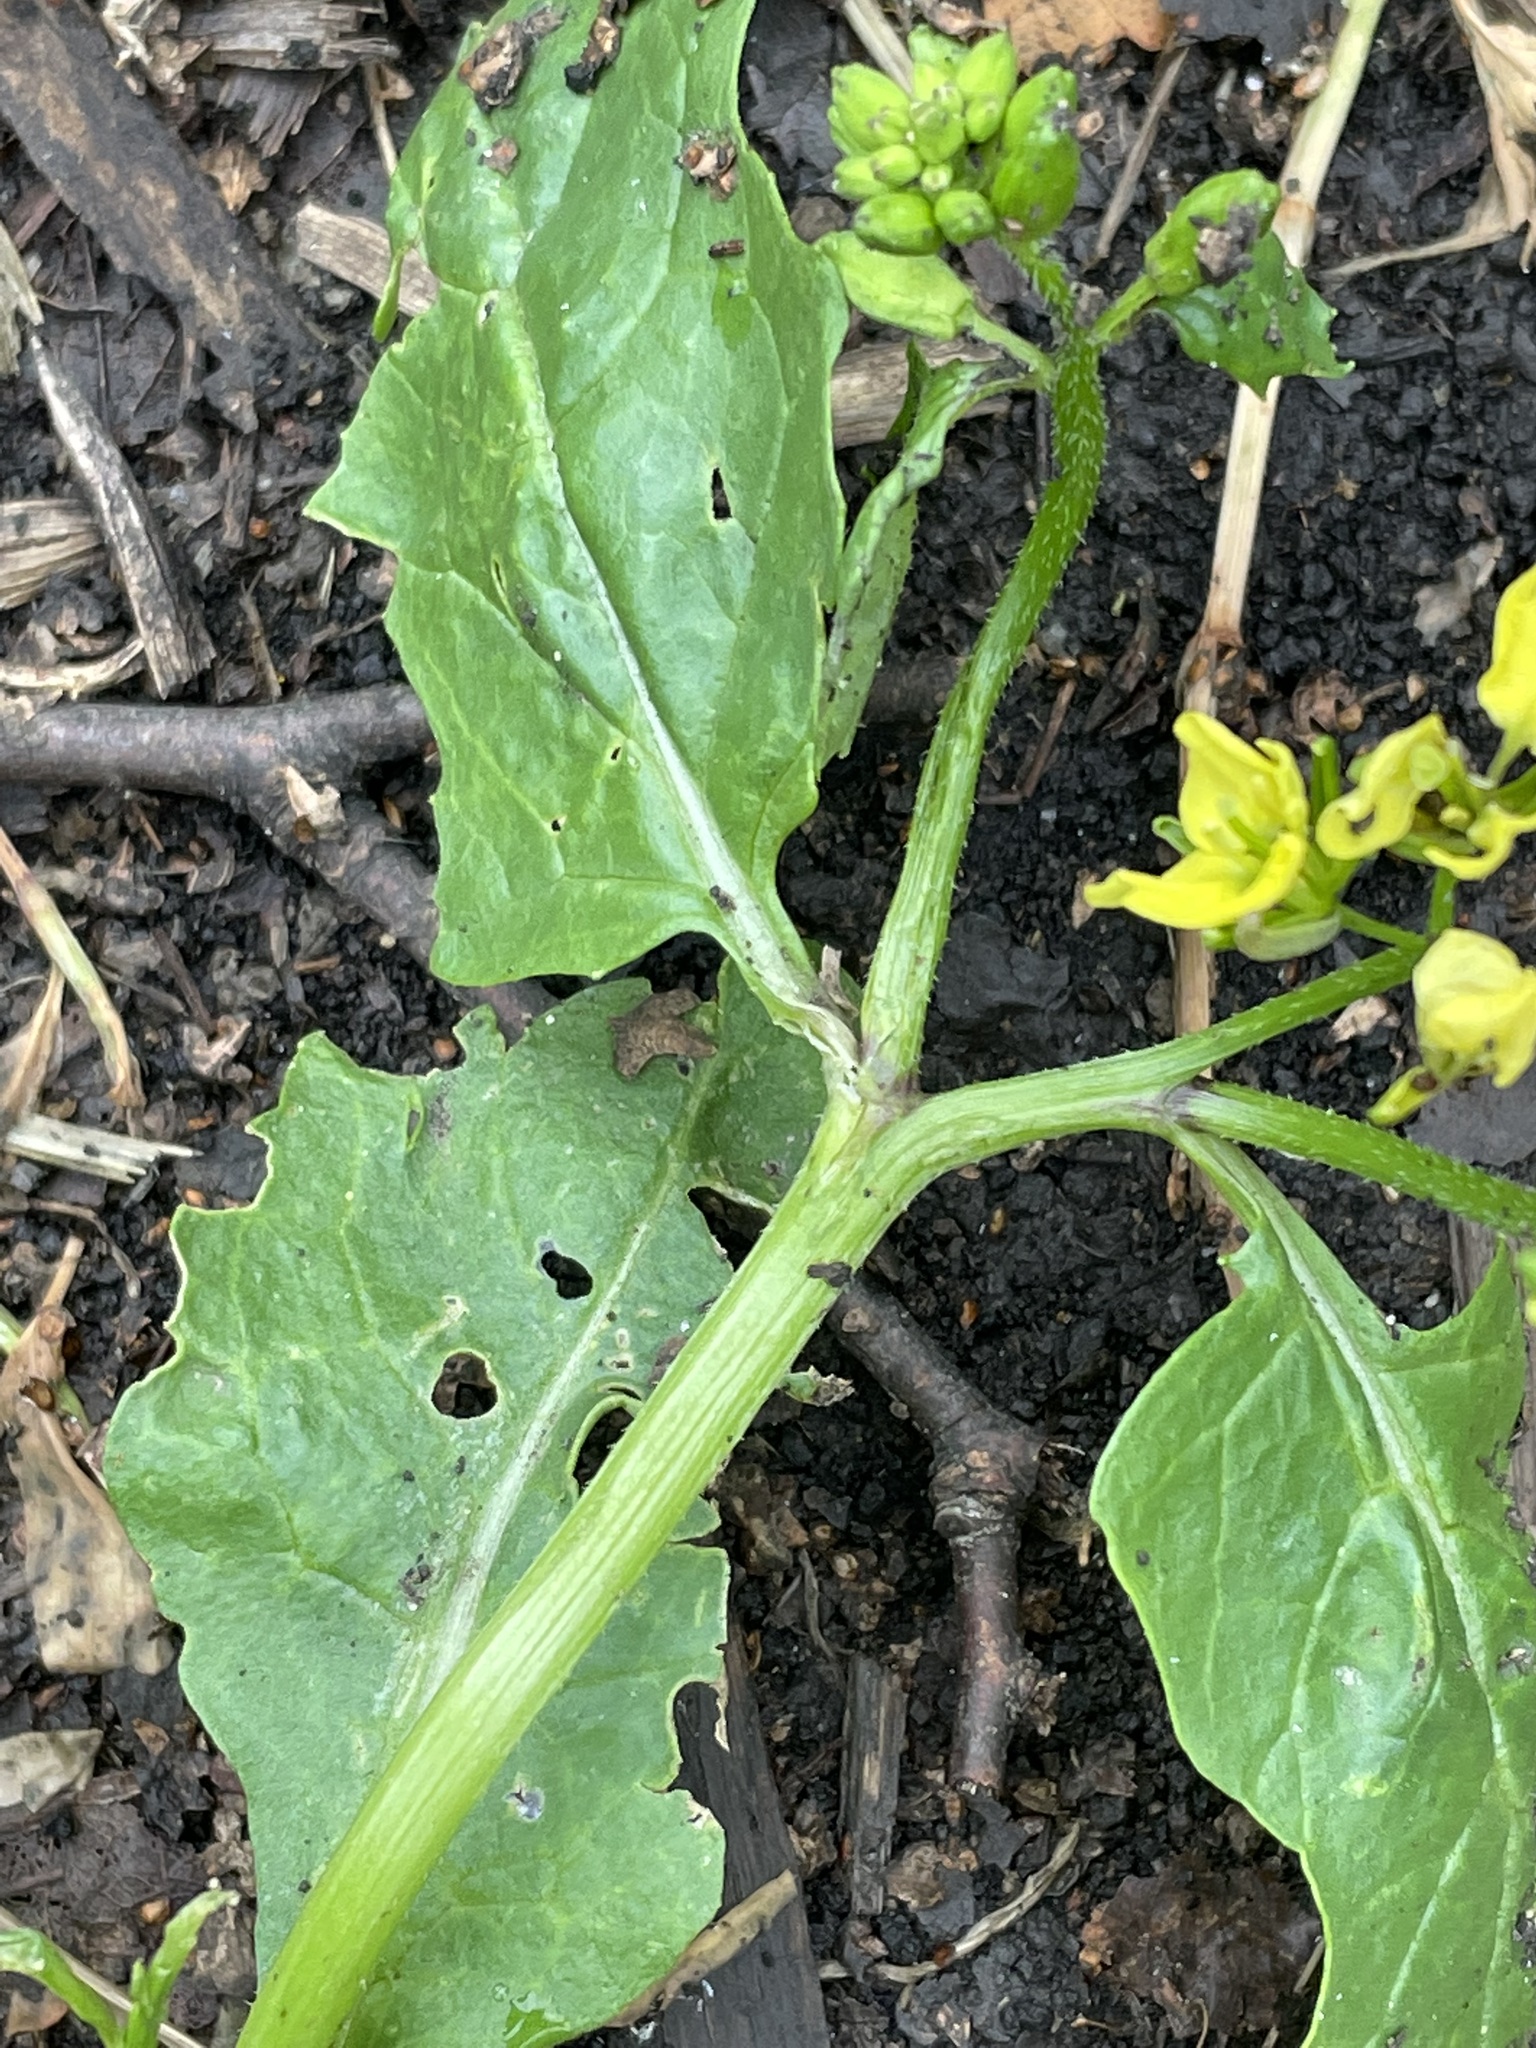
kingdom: Plantae
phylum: Tracheophyta
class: Magnoliopsida
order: Brassicales
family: Brassicaceae
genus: Sinapis
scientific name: Sinapis arvensis
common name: Charlock
